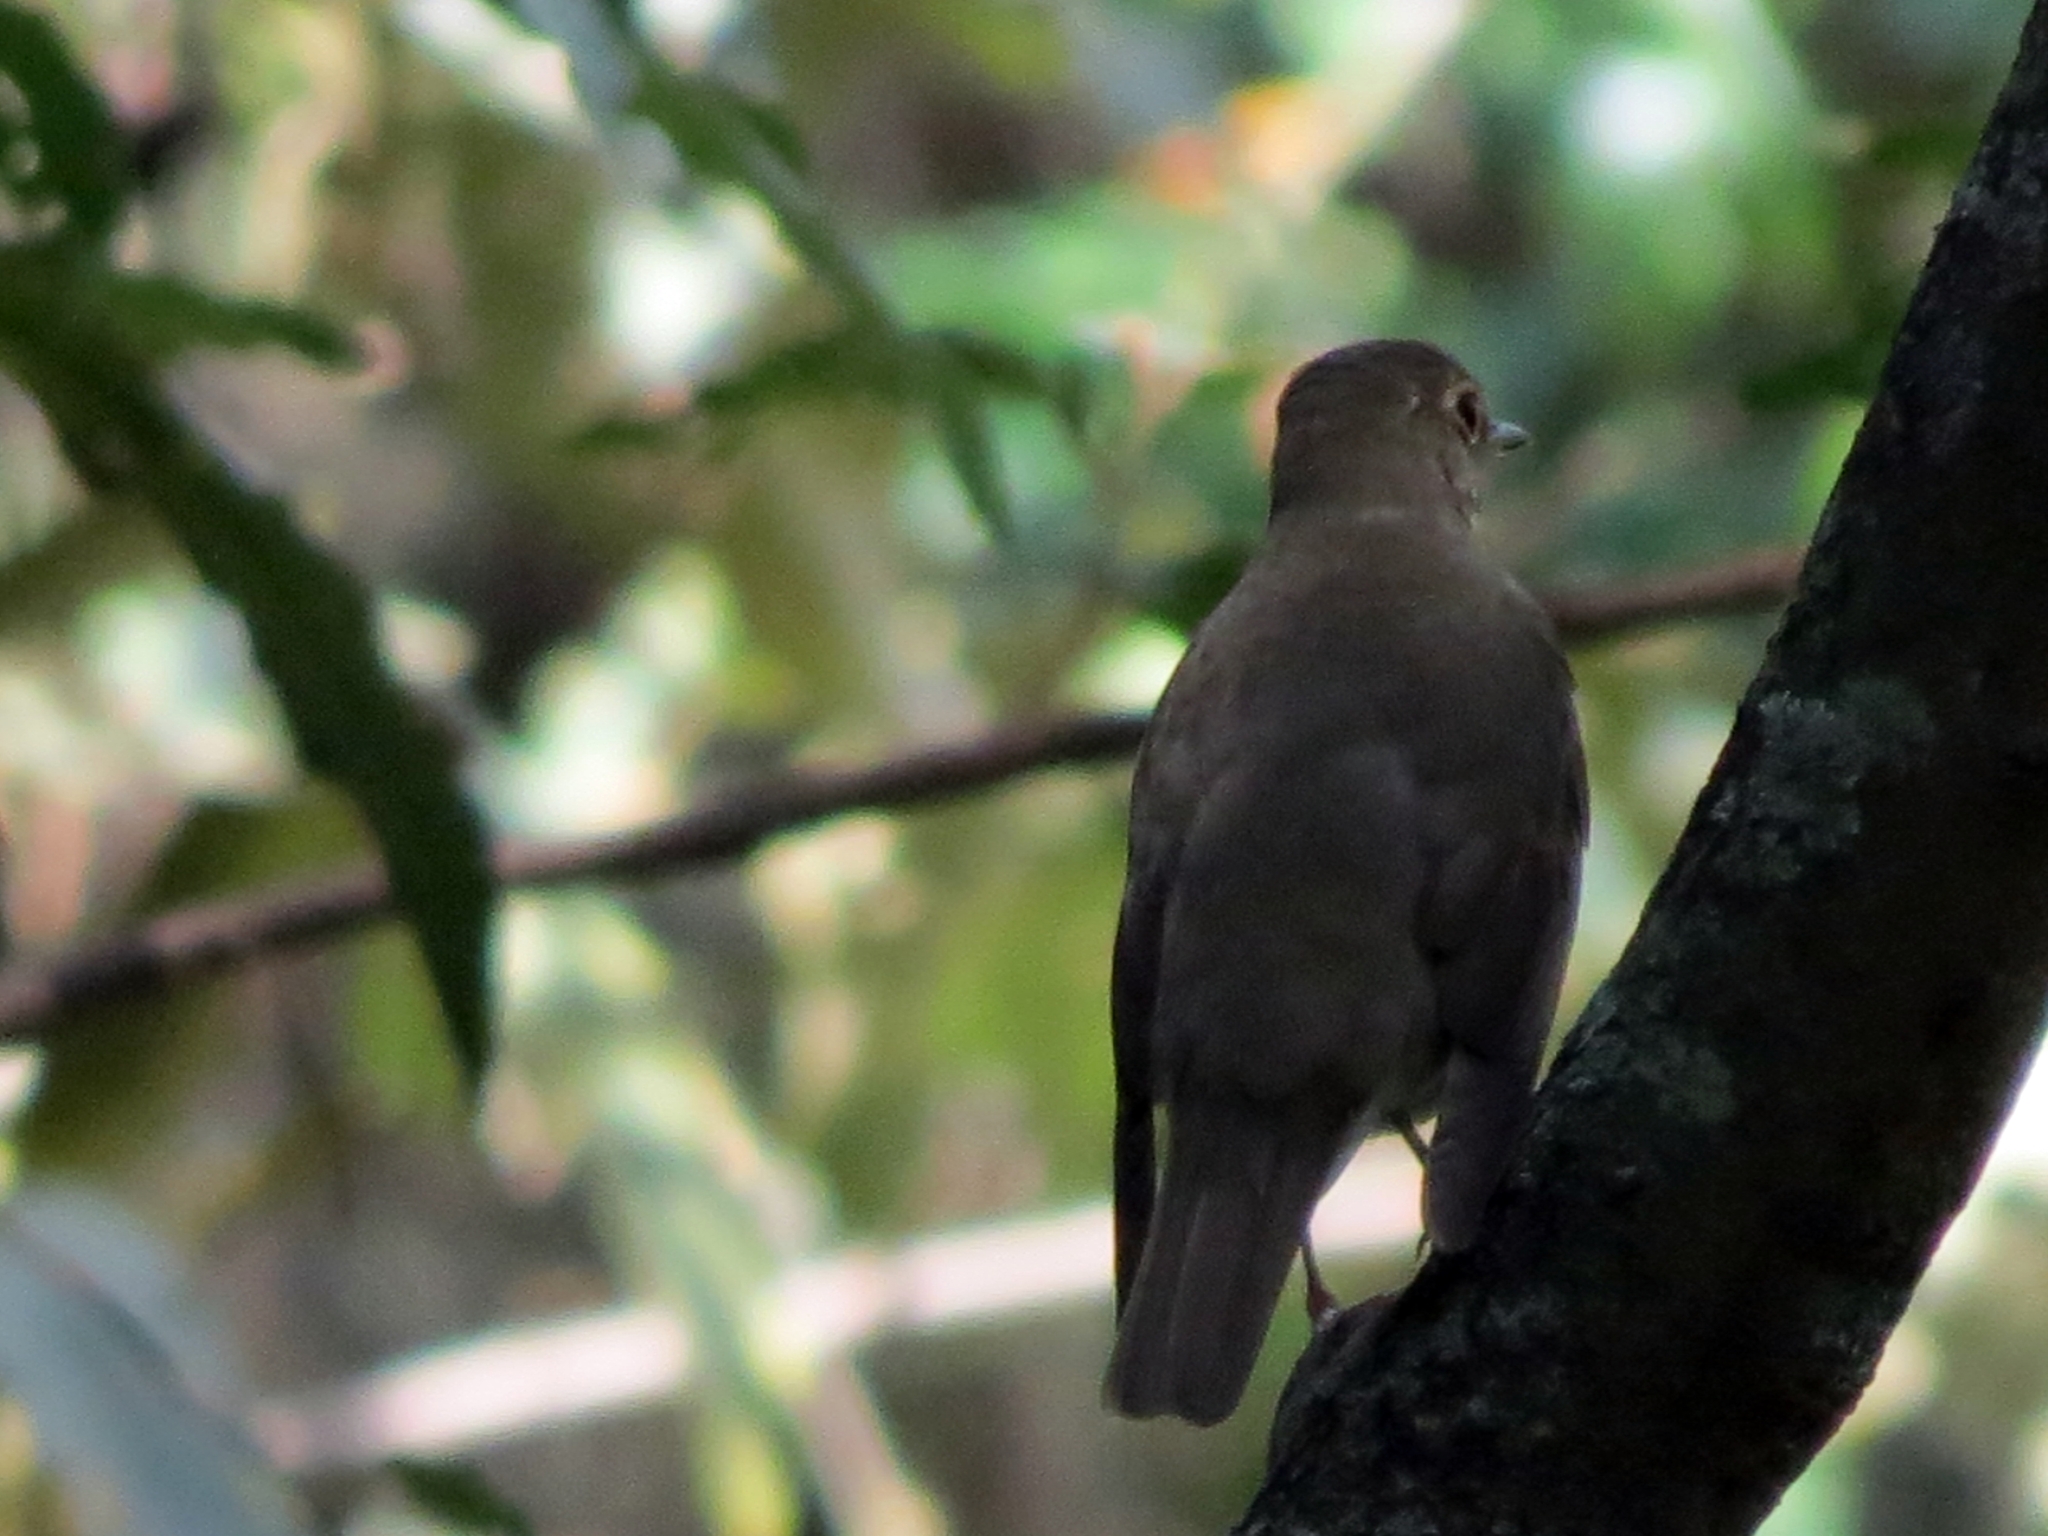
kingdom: Animalia
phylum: Chordata
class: Aves
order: Passeriformes
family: Turdidae
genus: Catharus
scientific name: Catharus ustulatus
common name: Swainson's thrush
